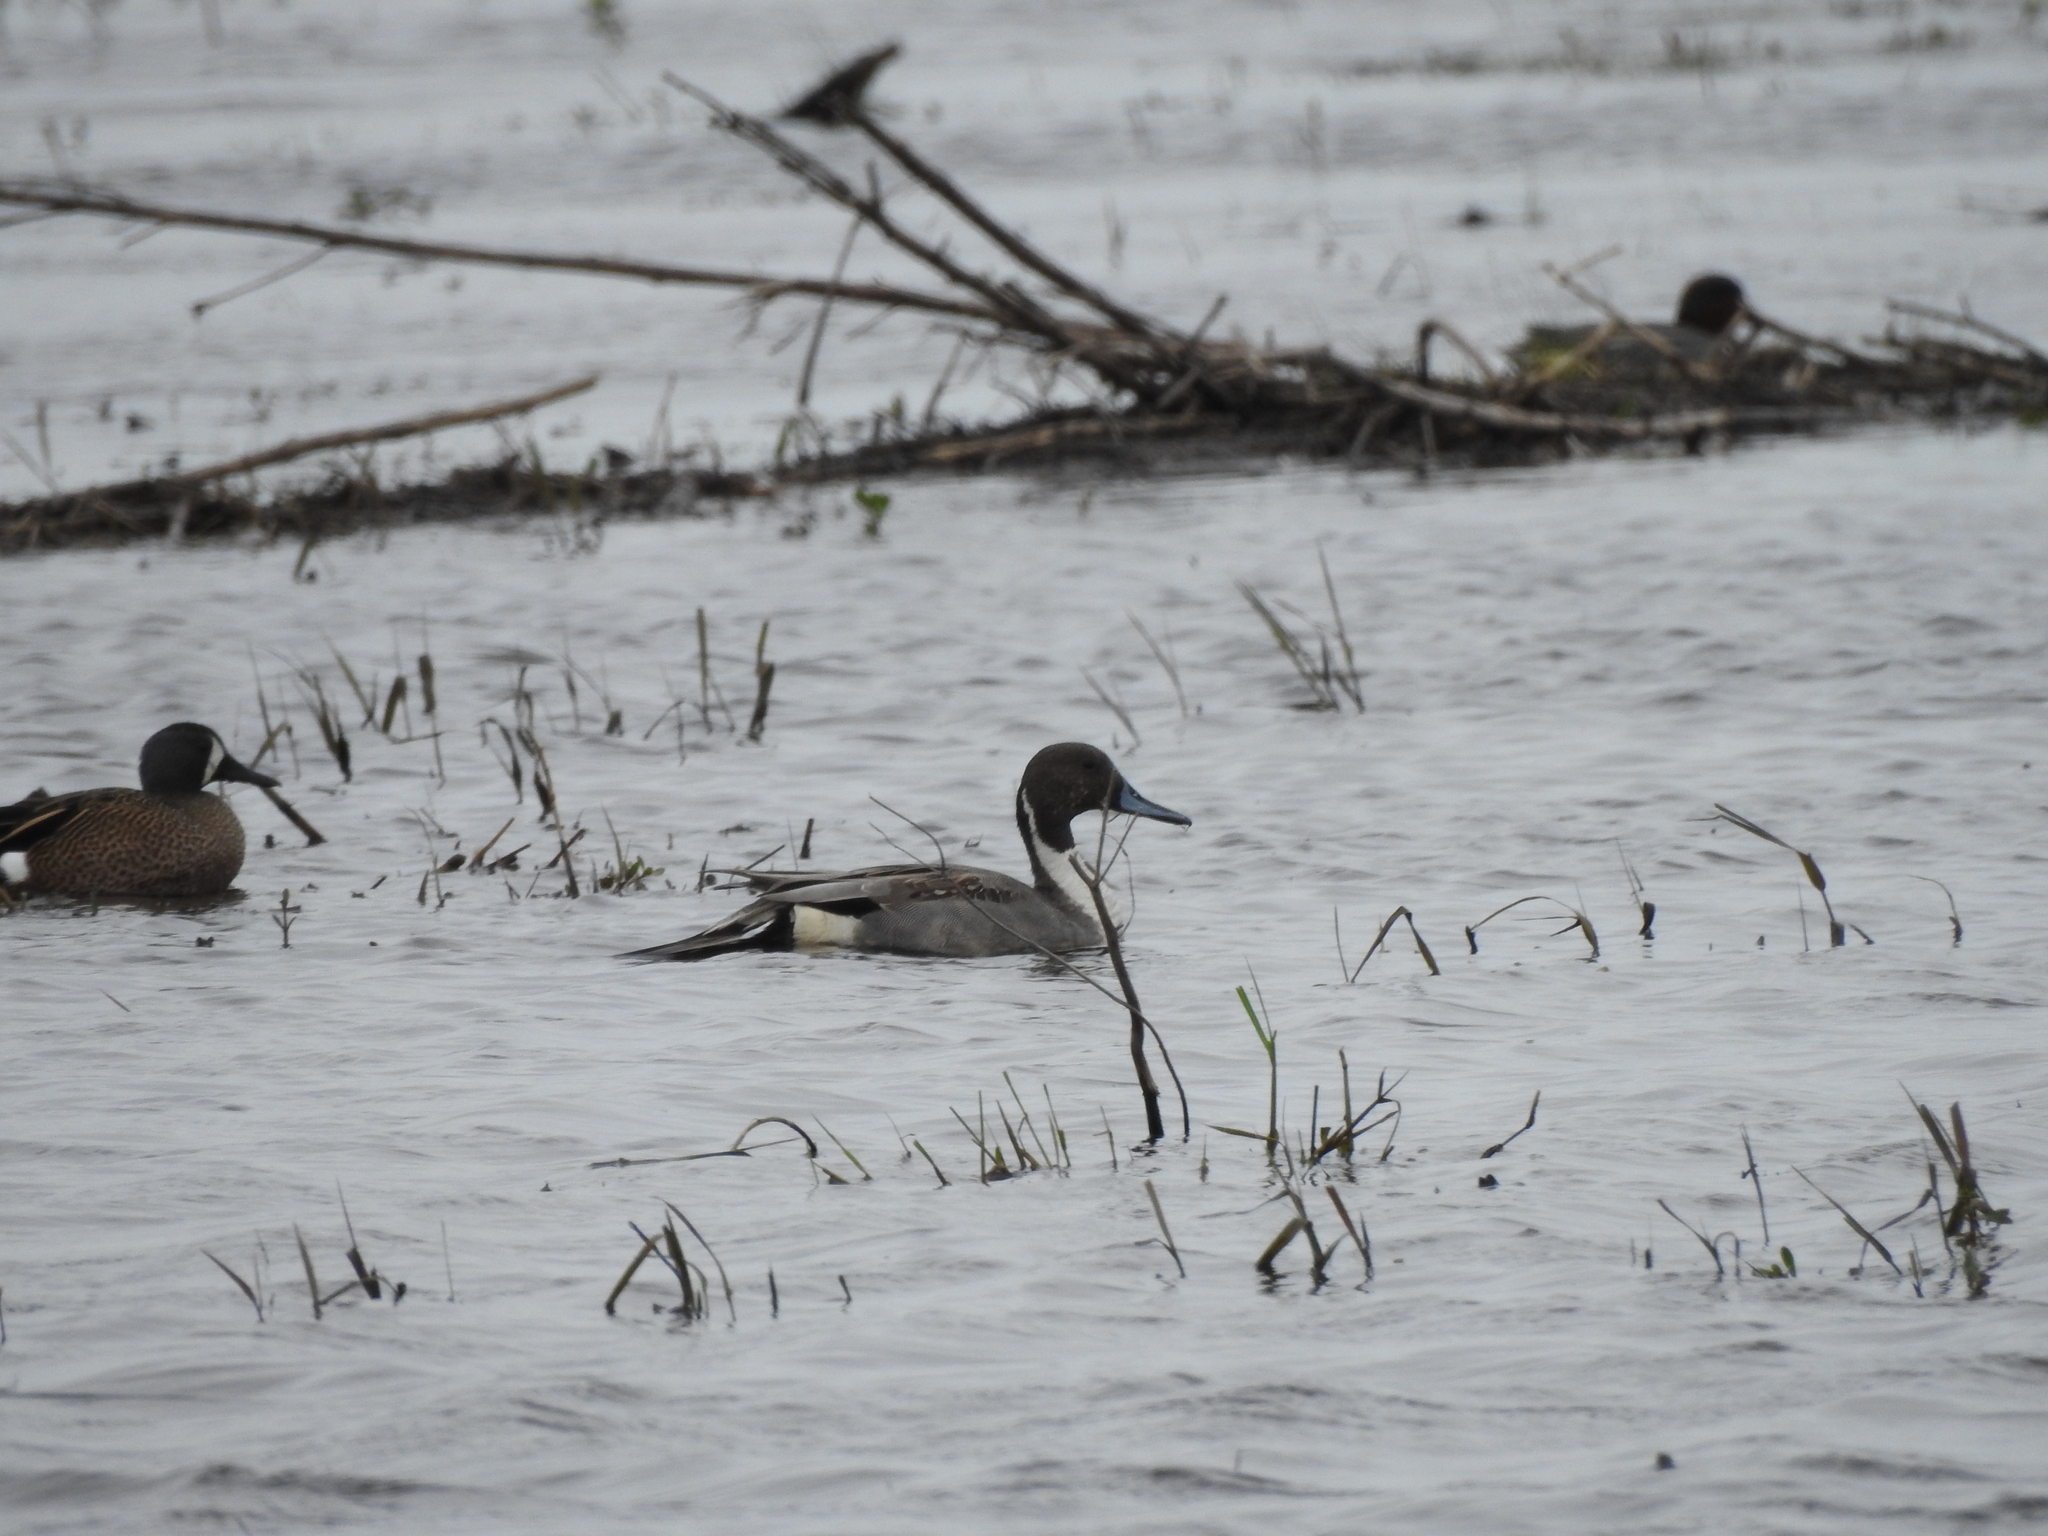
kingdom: Animalia
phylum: Chordata
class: Aves
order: Anseriformes
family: Anatidae
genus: Anas
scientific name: Anas acuta
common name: Northern pintail
